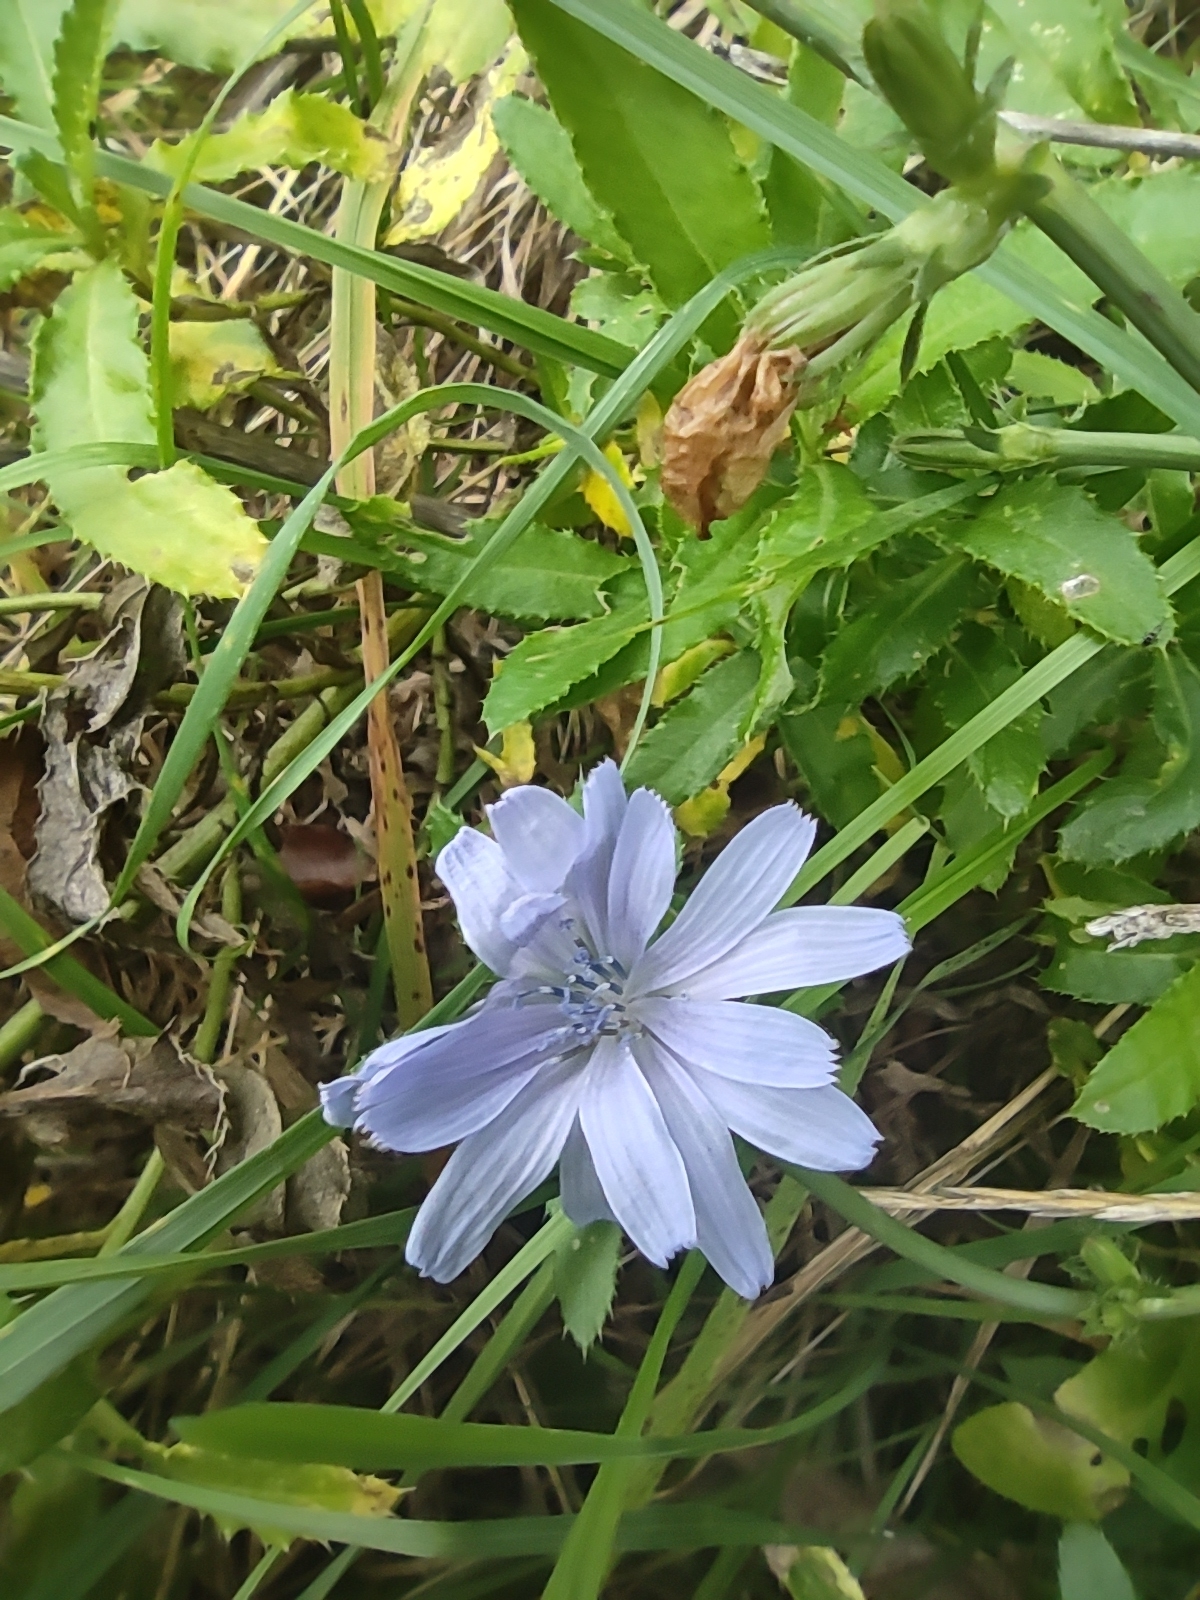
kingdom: Plantae
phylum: Tracheophyta
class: Magnoliopsida
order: Asterales
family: Asteraceae
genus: Cichorium
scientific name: Cichorium intybus
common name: Chicory
